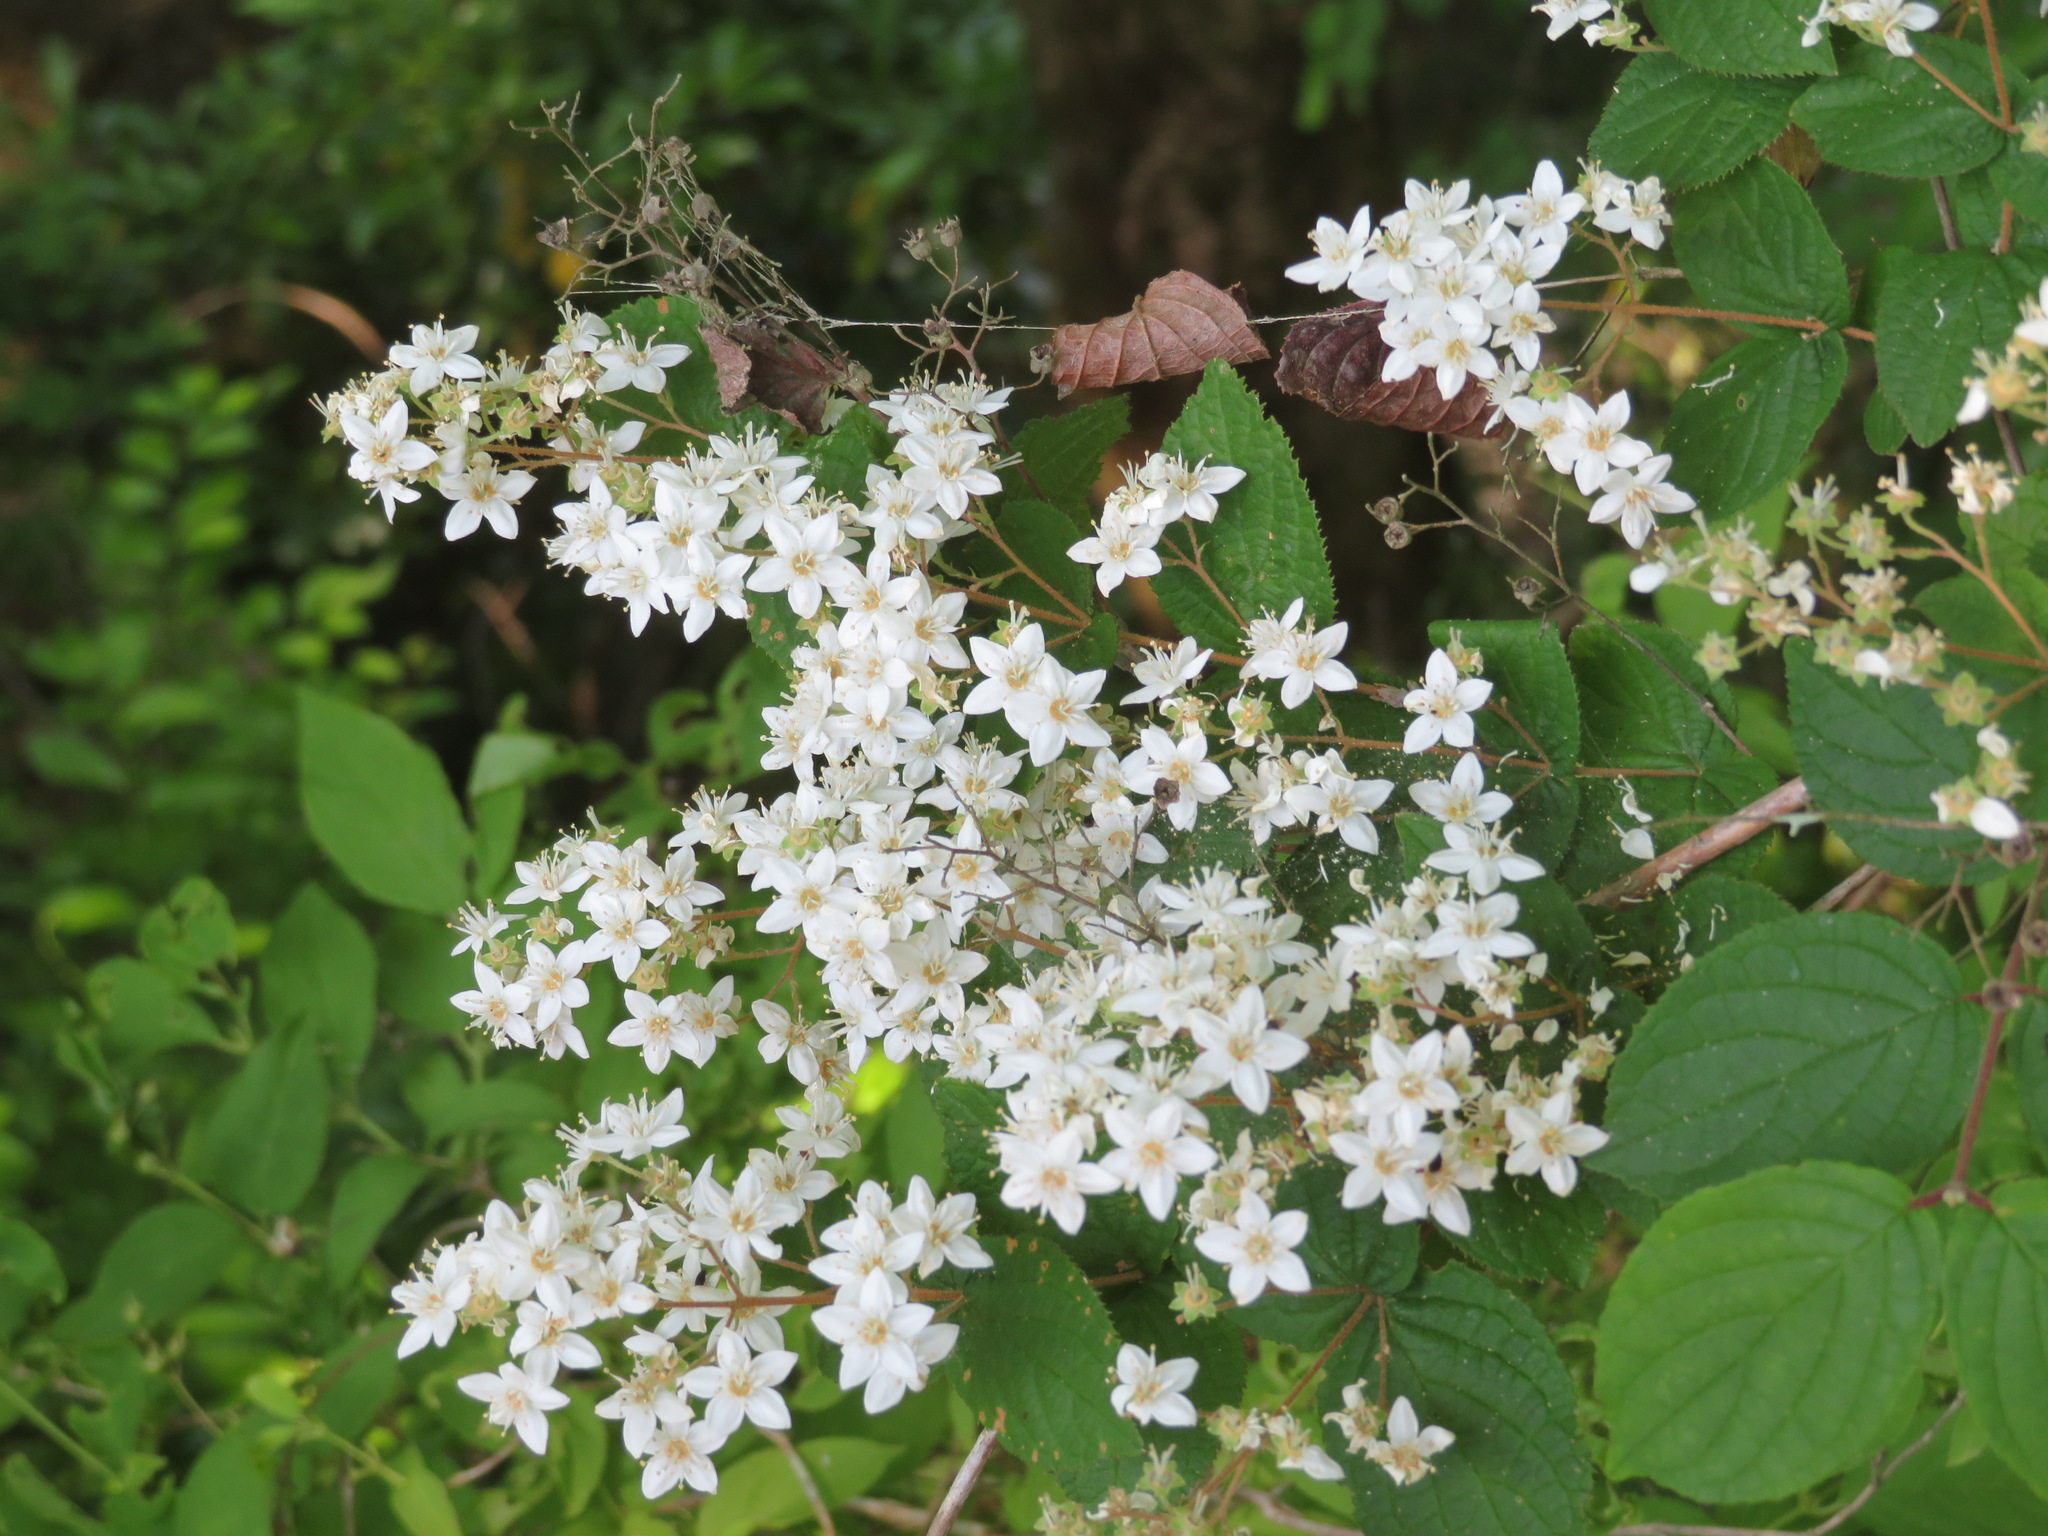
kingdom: Plantae
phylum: Tracheophyta
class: Magnoliopsida
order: Cornales
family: Hydrangeaceae
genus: Deutzia
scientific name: Deutzia gracilis
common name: Slender pride of rochester
